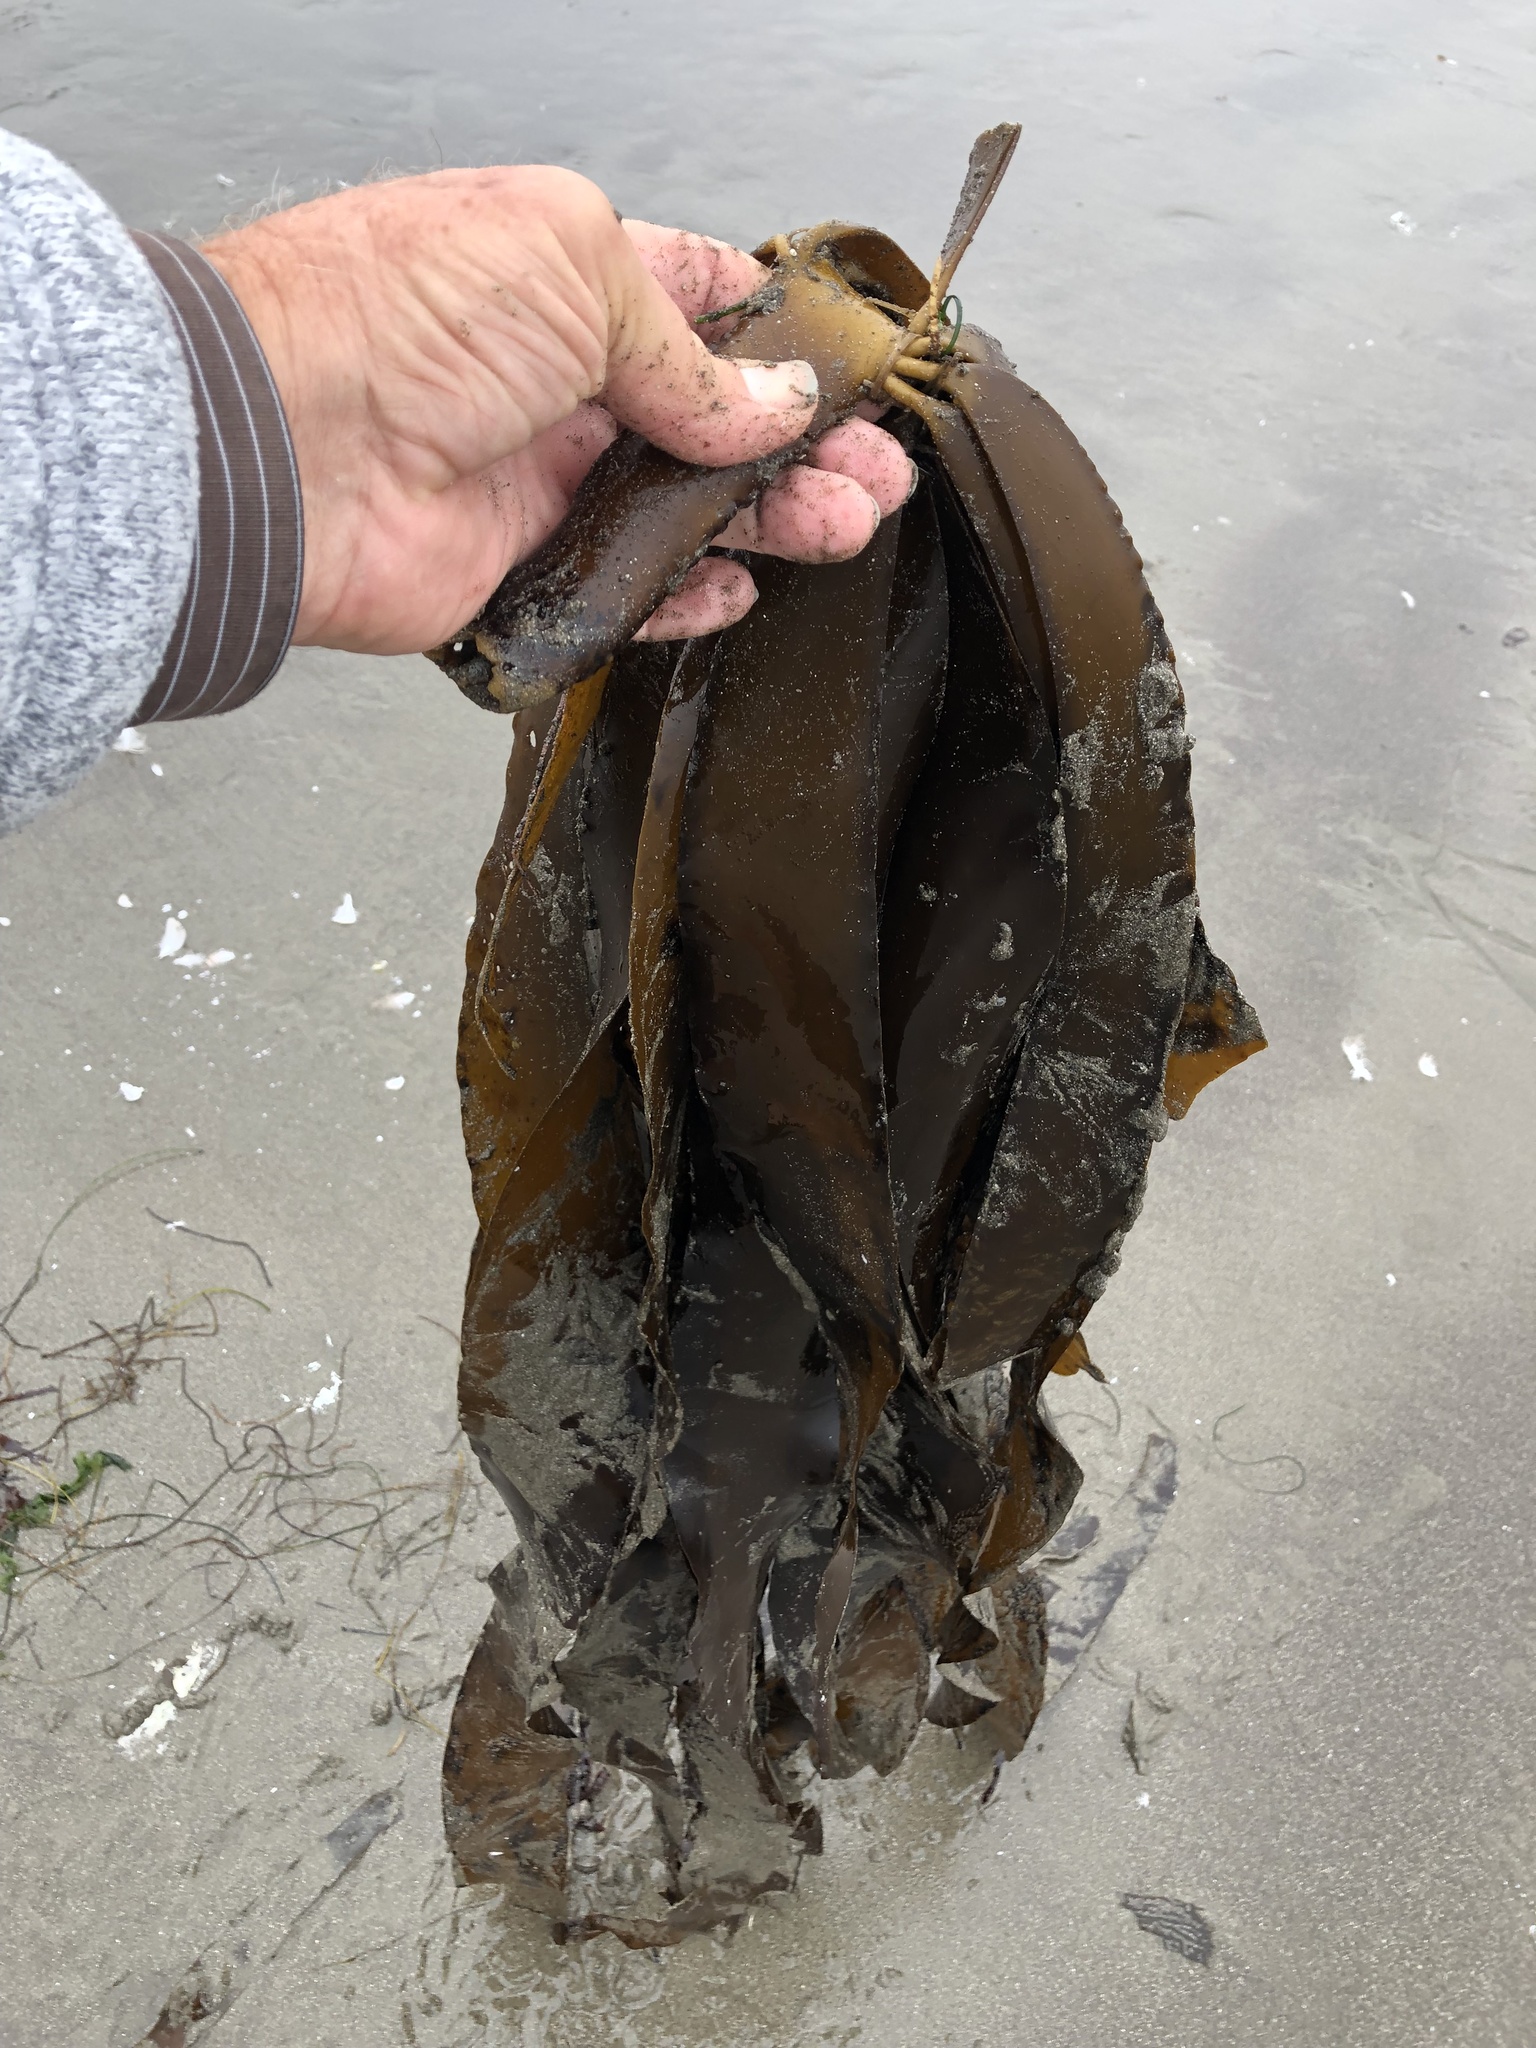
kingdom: Chromista
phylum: Ochrophyta
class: Phaeophyceae
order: Laminariales
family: Alariaceae
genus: Pterygophora
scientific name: Pterygophora californica
